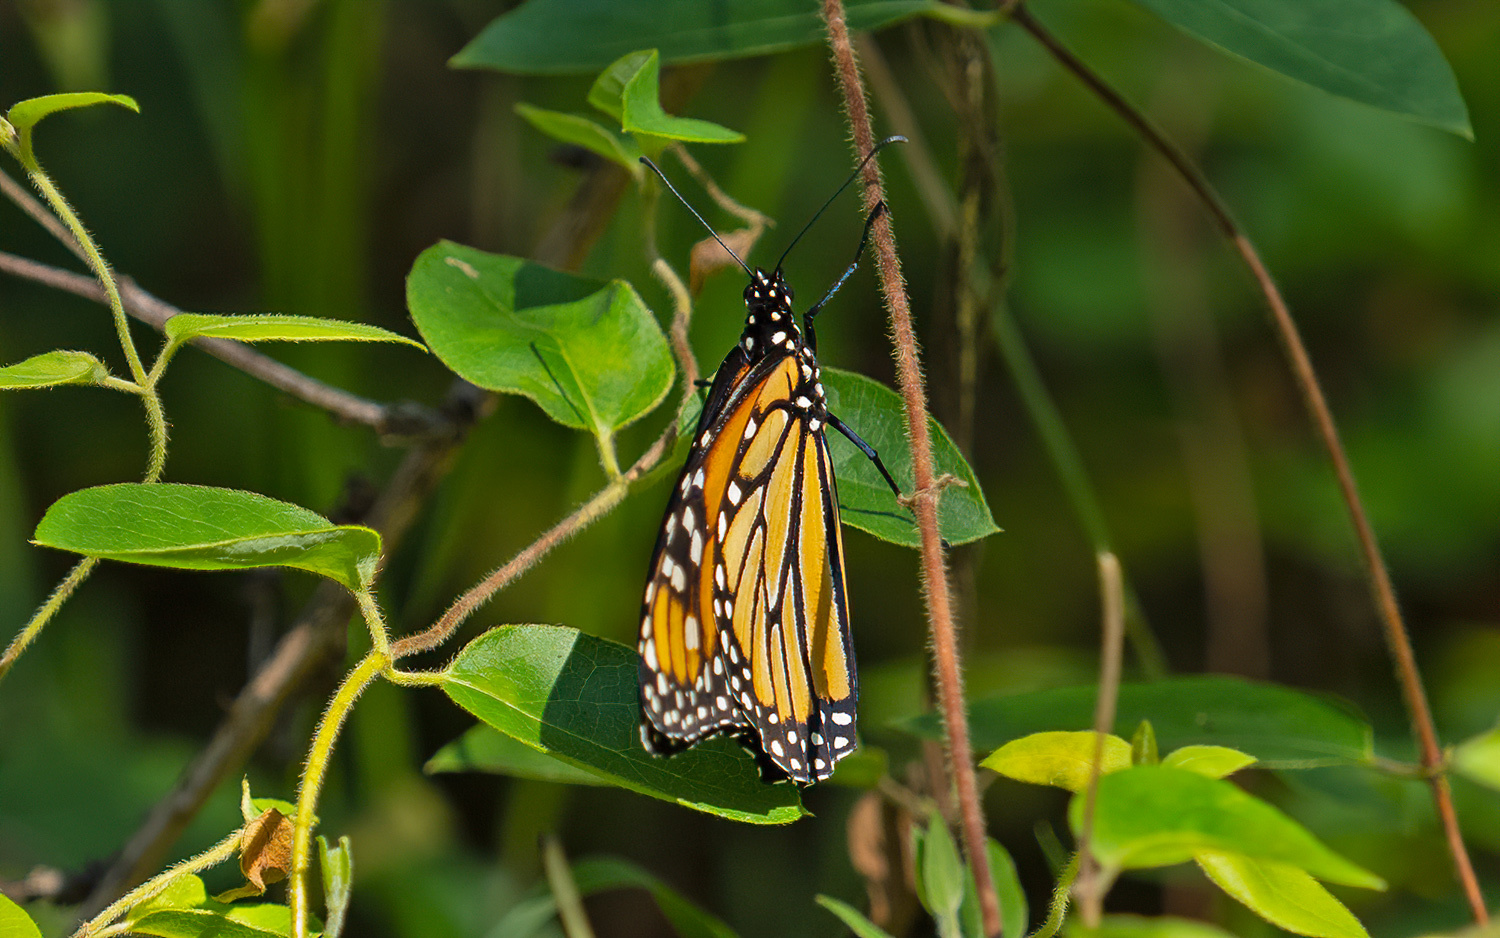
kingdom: Animalia
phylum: Arthropoda
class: Insecta
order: Lepidoptera
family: Nymphalidae
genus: Danaus
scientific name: Danaus plexippus
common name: Monarch
